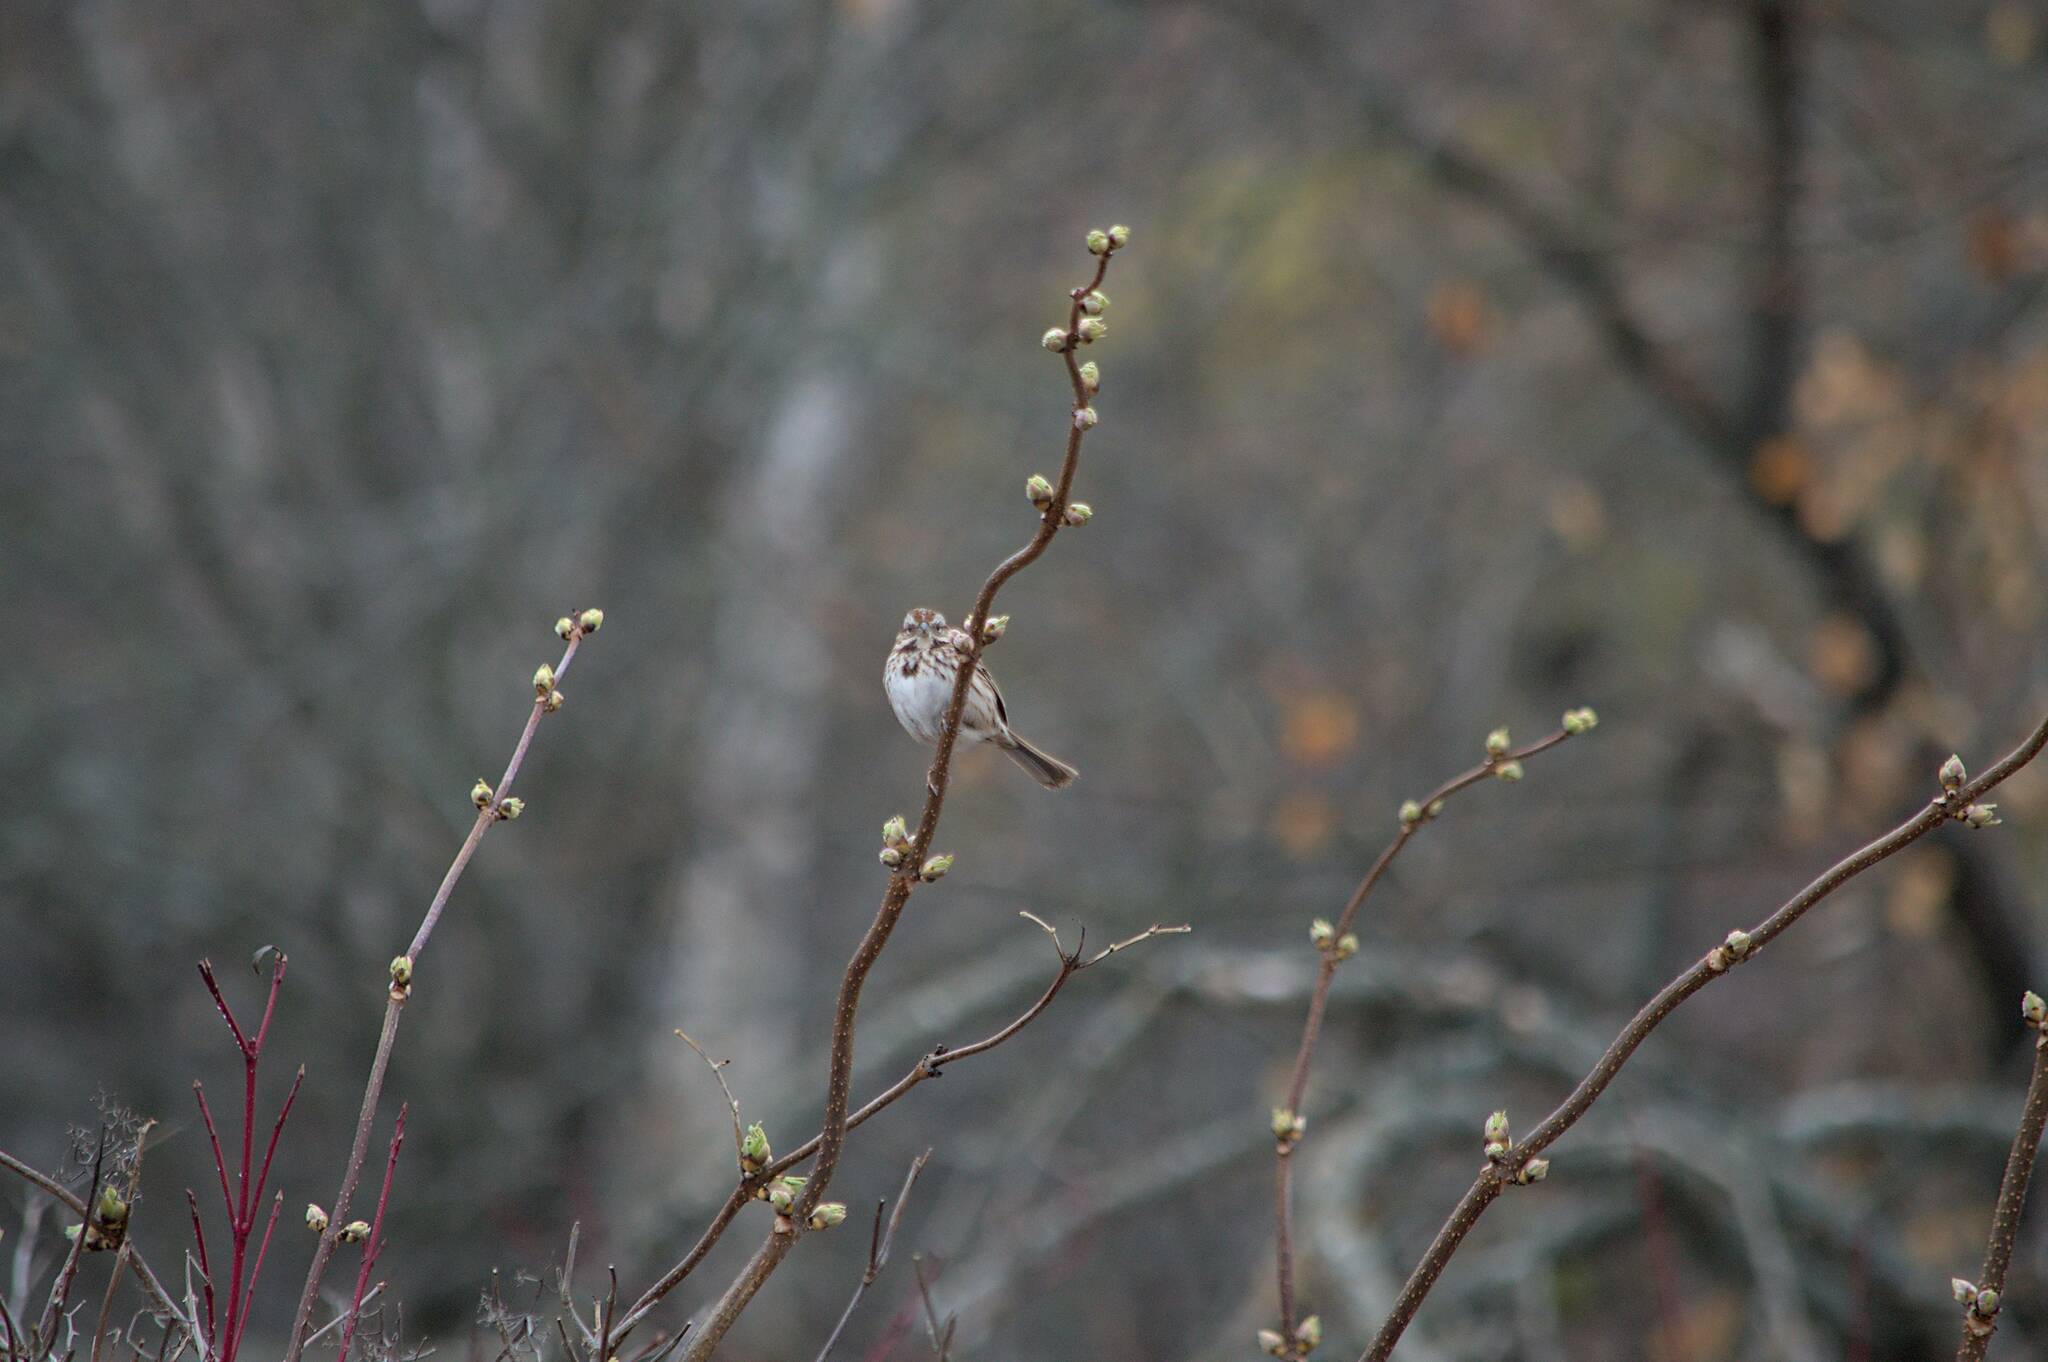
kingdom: Animalia
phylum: Chordata
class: Aves
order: Passeriformes
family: Passerellidae
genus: Melospiza
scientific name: Melospiza melodia
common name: Song sparrow
